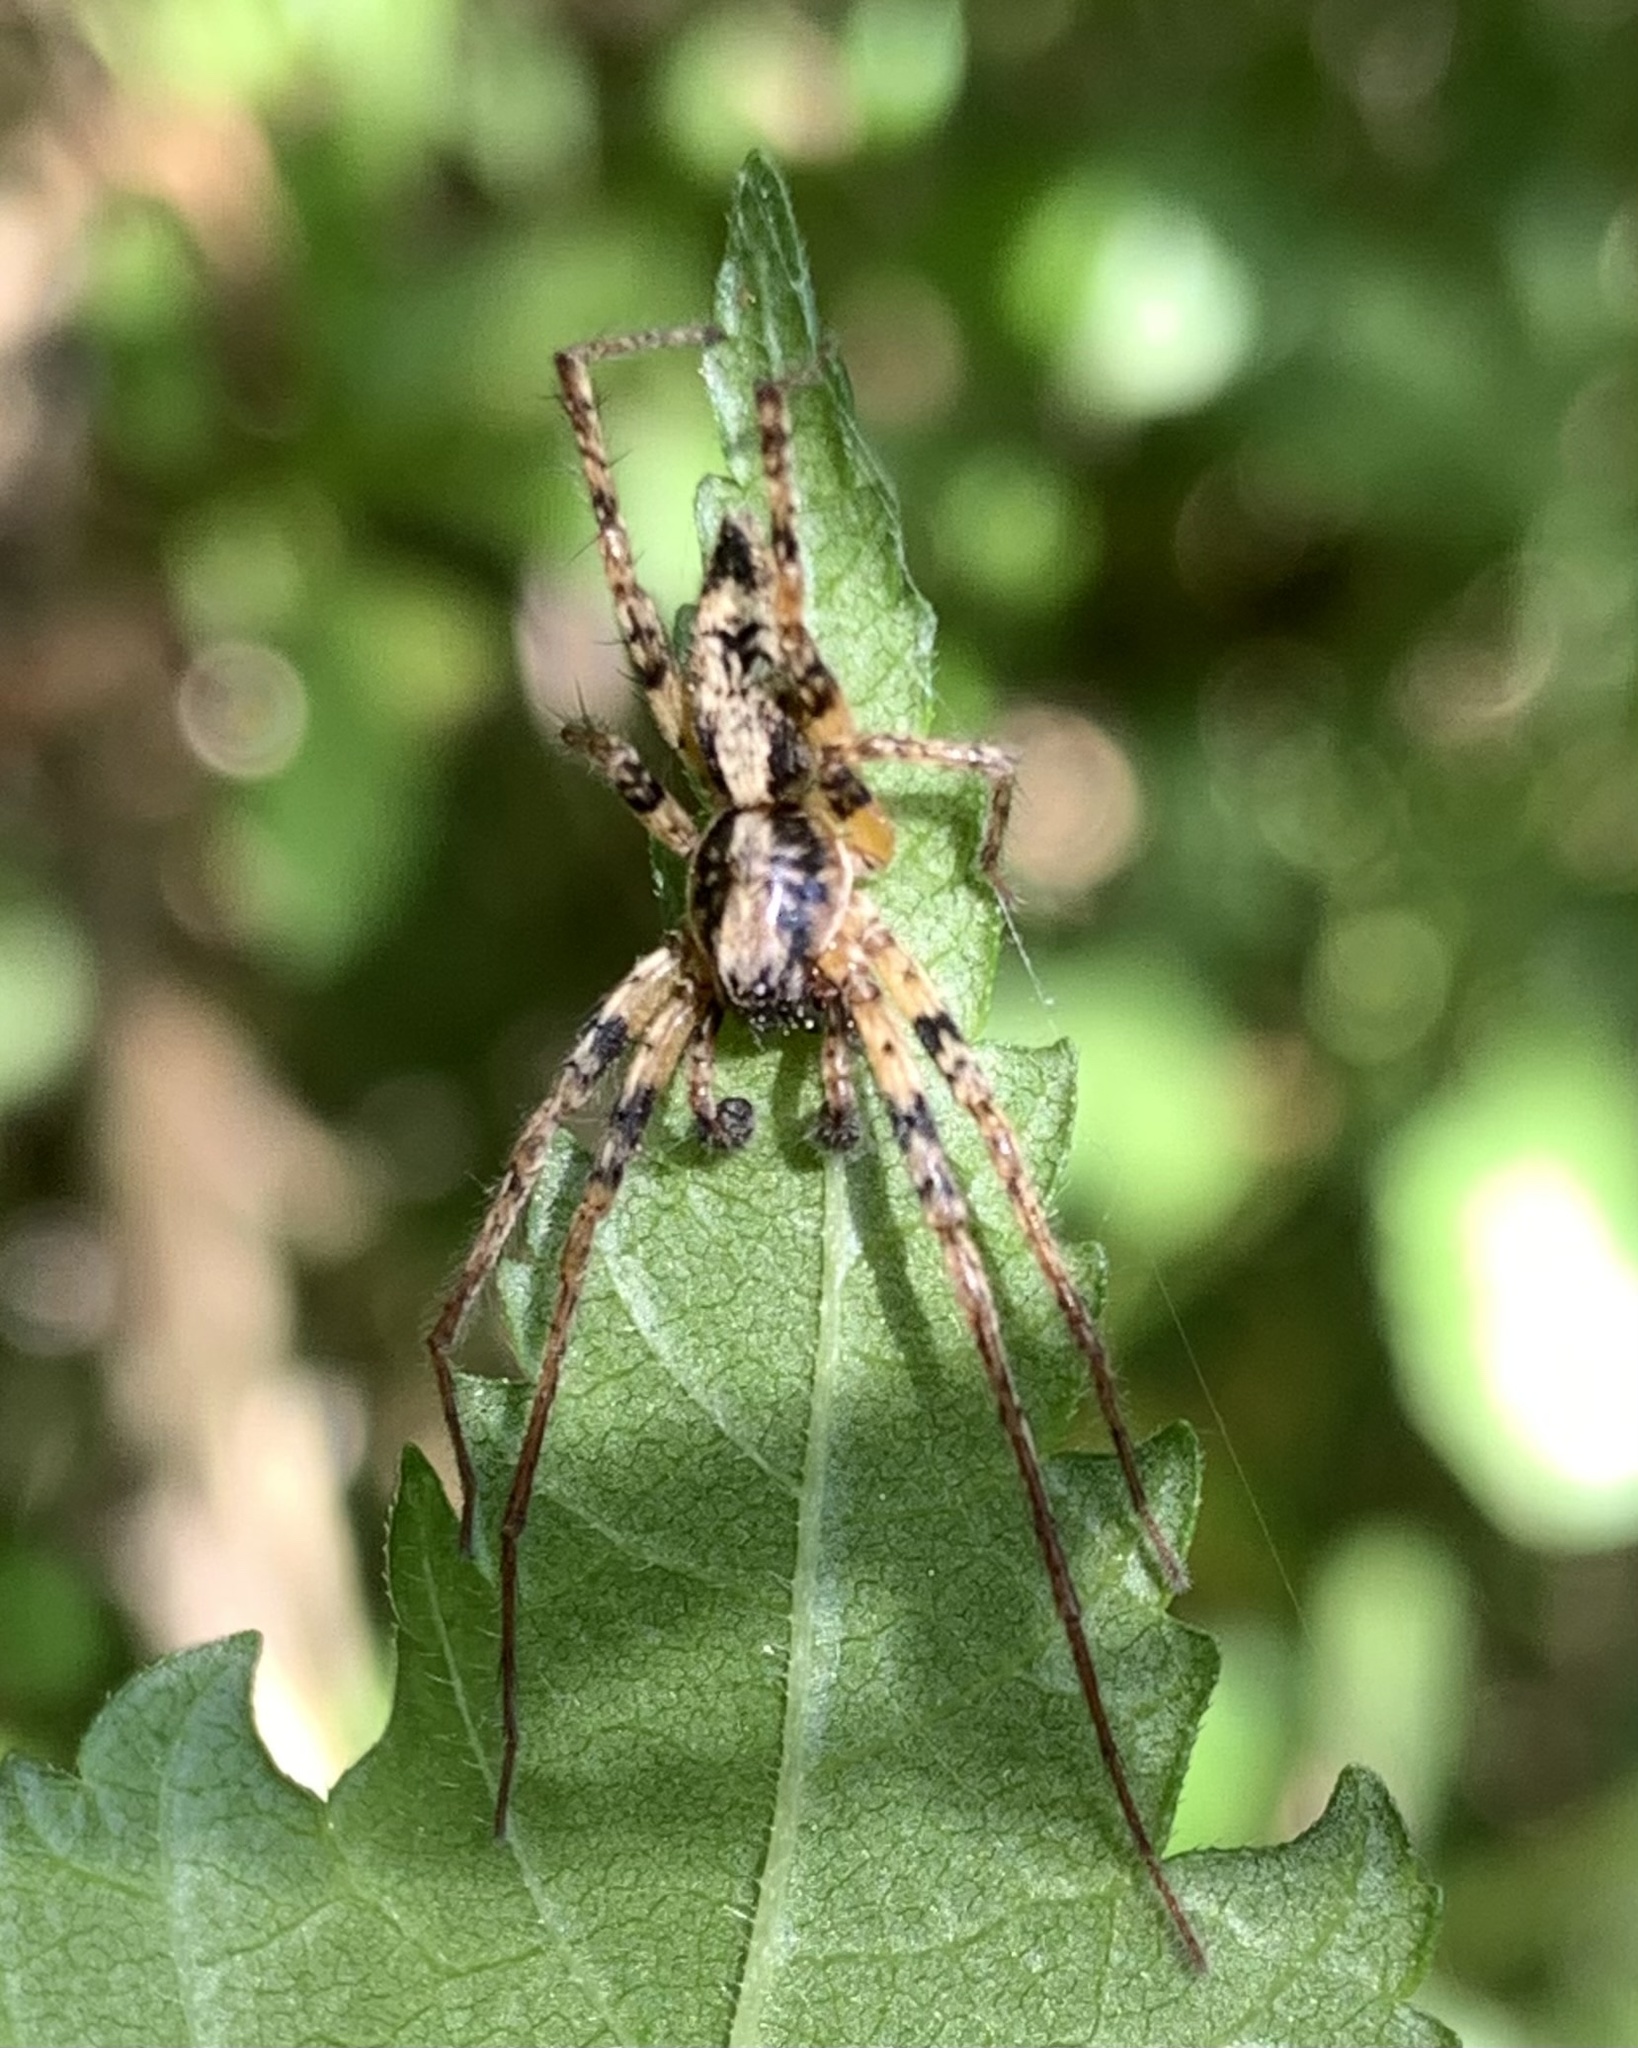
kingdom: Animalia
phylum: Arthropoda
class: Arachnida
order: Araneae
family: Anyphaenidae
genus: Anyphaena
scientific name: Anyphaena accentuata
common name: Buzzing spider
